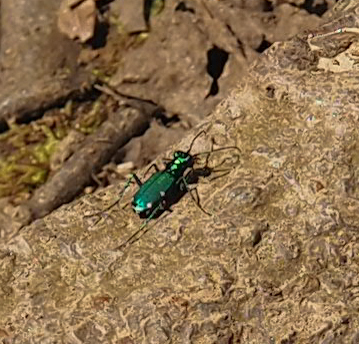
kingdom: Animalia
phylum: Arthropoda
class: Insecta
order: Coleoptera
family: Carabidae
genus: Cicindela
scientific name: Cicindela sexguttata
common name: Six-spotted tiger beetle
